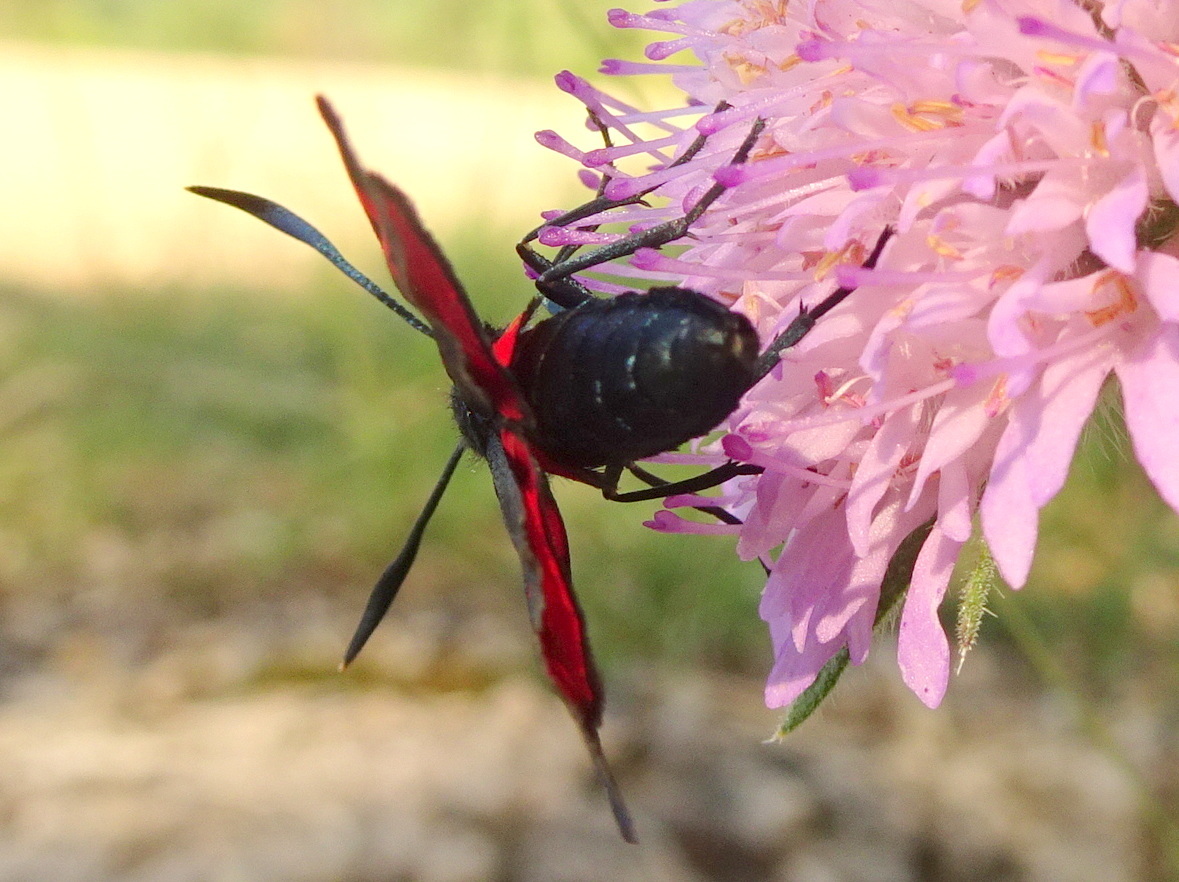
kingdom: Animalia
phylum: Arthropoda
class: Insecta
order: Lepidoptera
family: Zygaenidae
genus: Zygaena
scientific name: Zygaena filipendulae
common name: Six-spot burnet
